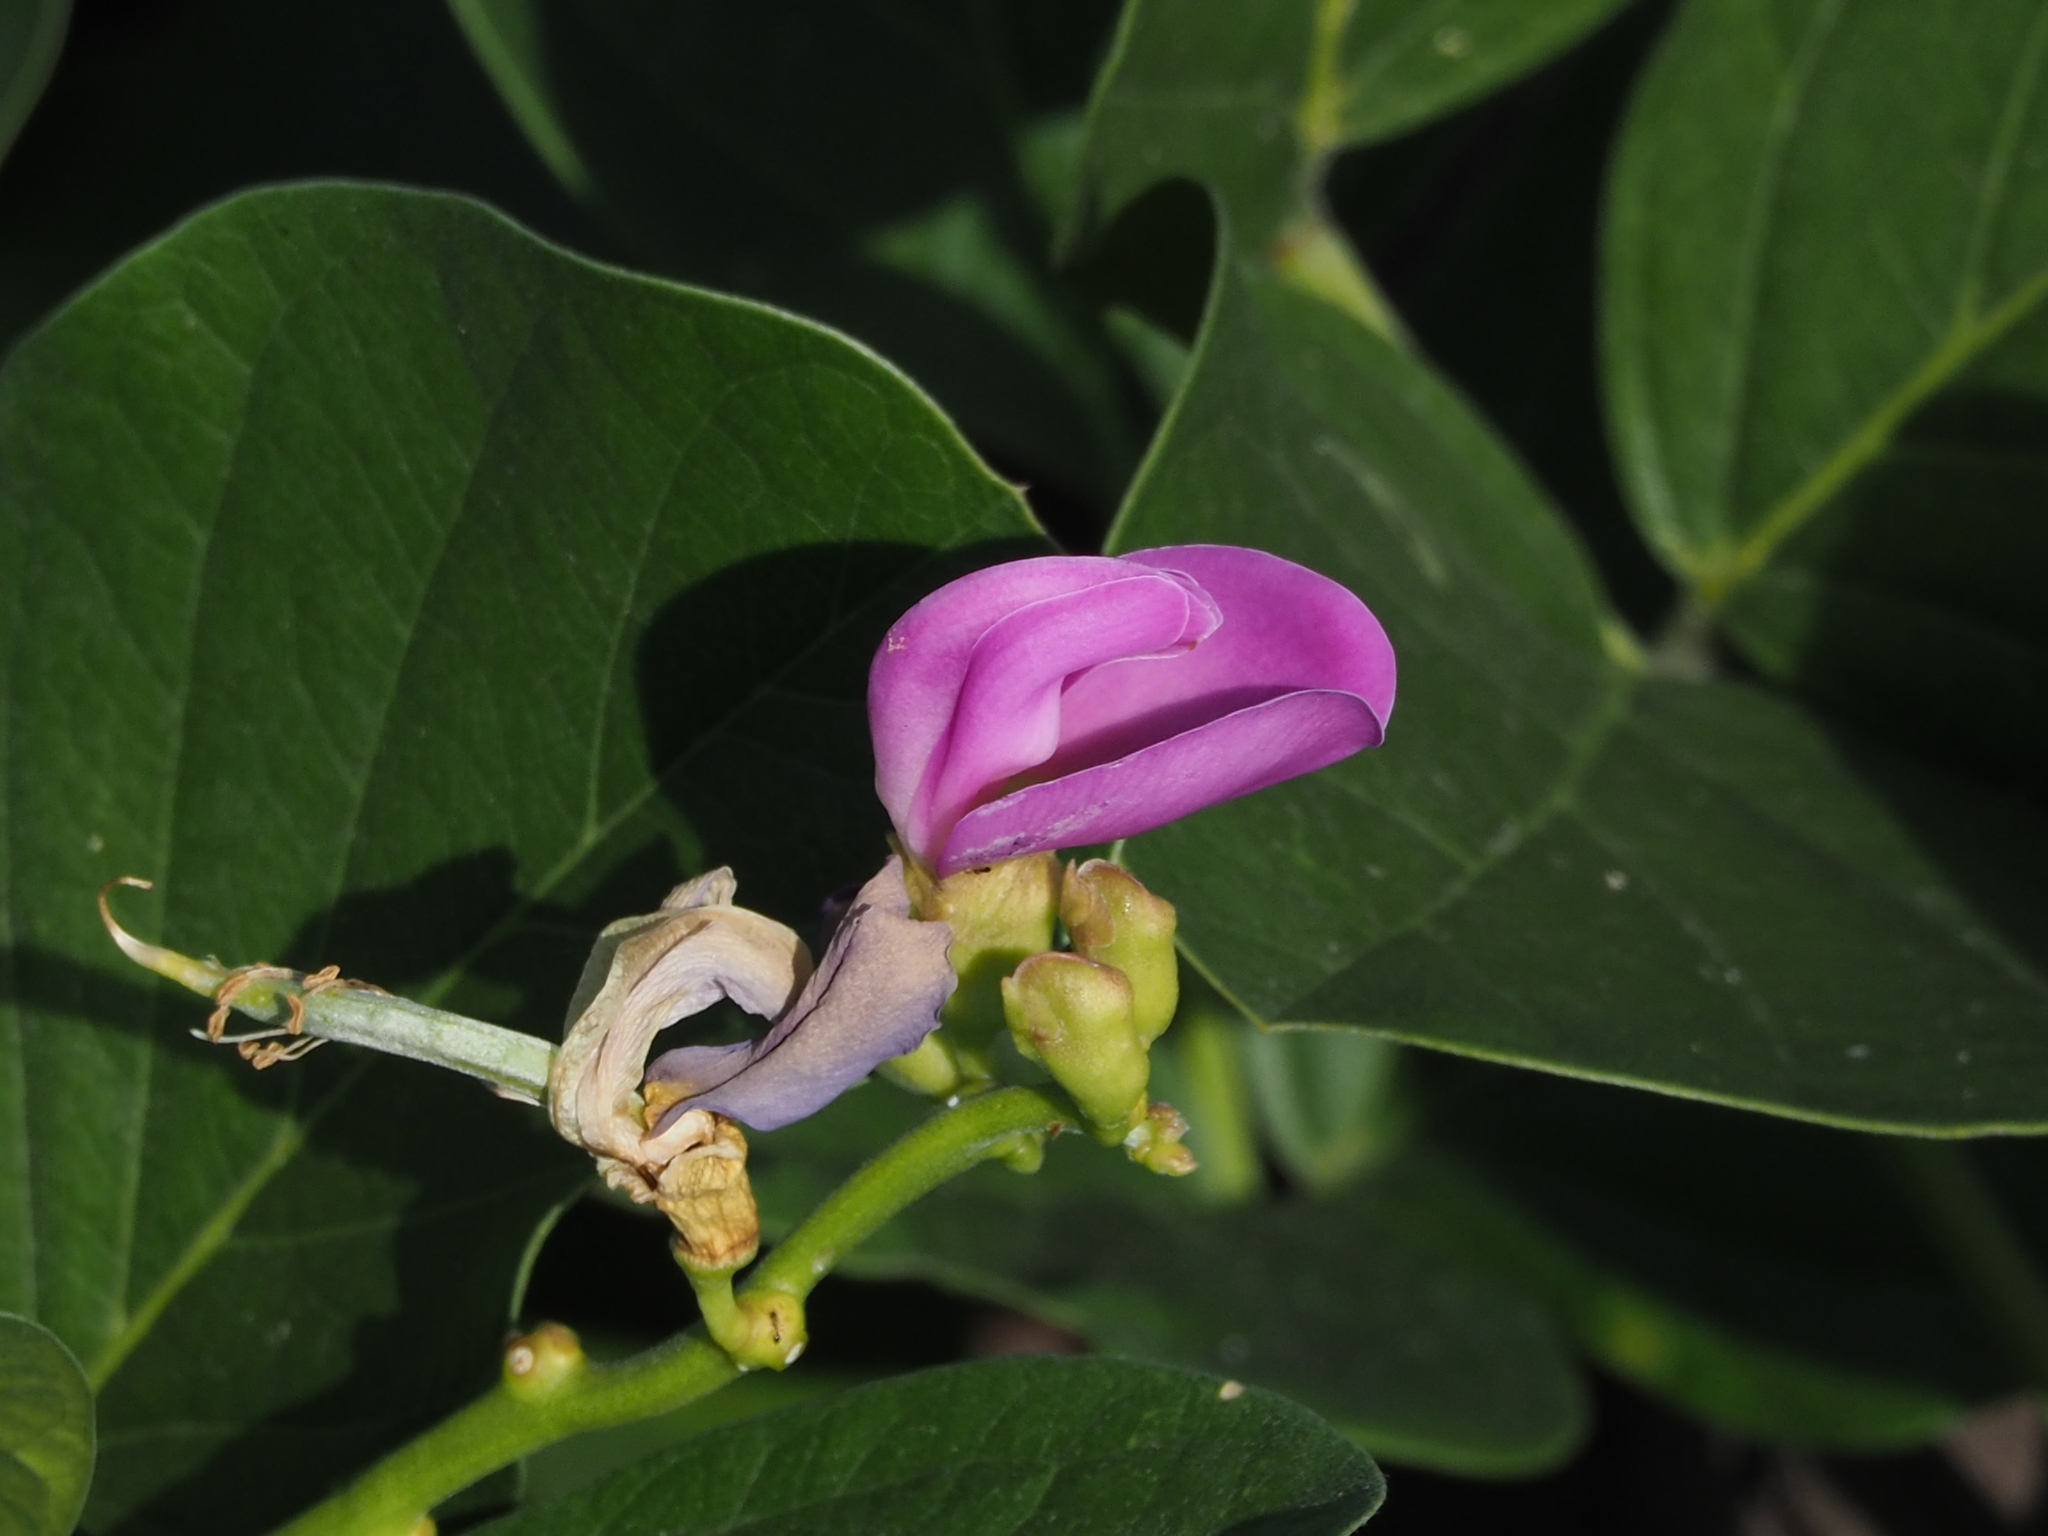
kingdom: Plantae
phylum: Tracheophyta
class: Magnoliopsida
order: Fabales
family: Fabaceae
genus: Canavalia
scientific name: Canavalia rosea
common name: Beach-bean
